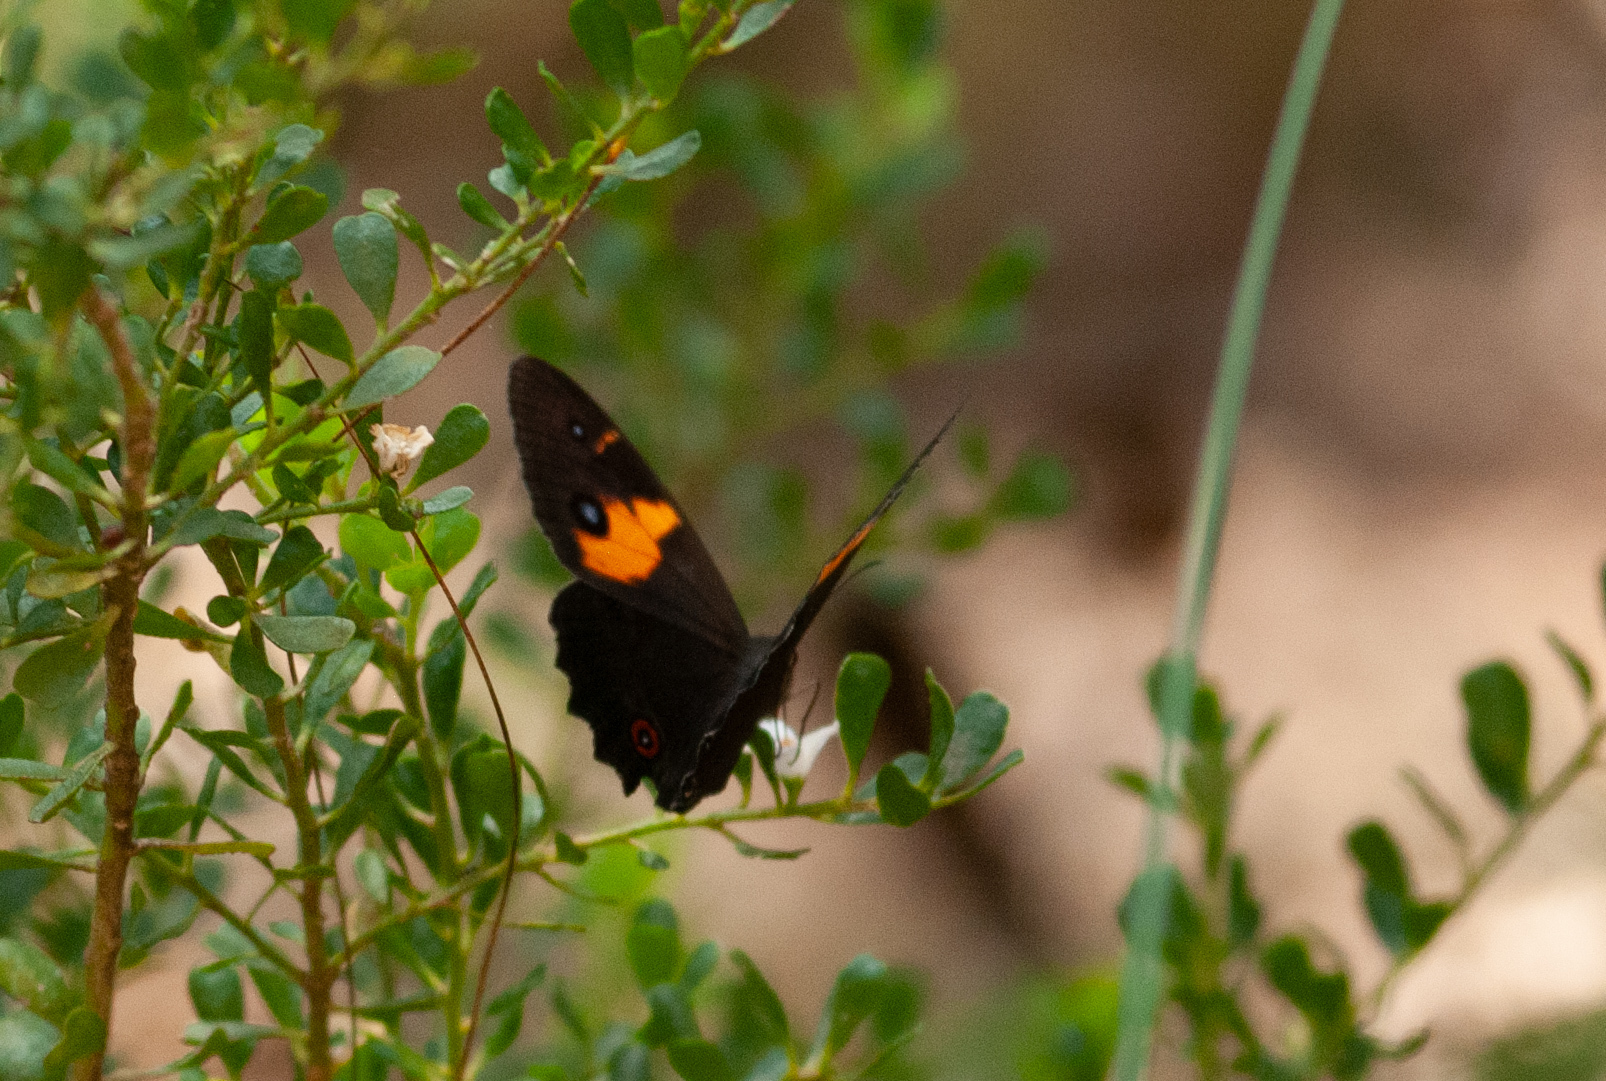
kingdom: Animalia
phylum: Arthropoda
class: Insecta
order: Lepidoptera
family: Nymphalidae
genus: Tisiphone
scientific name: Tisiphone abeona
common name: Swordgrass brown
